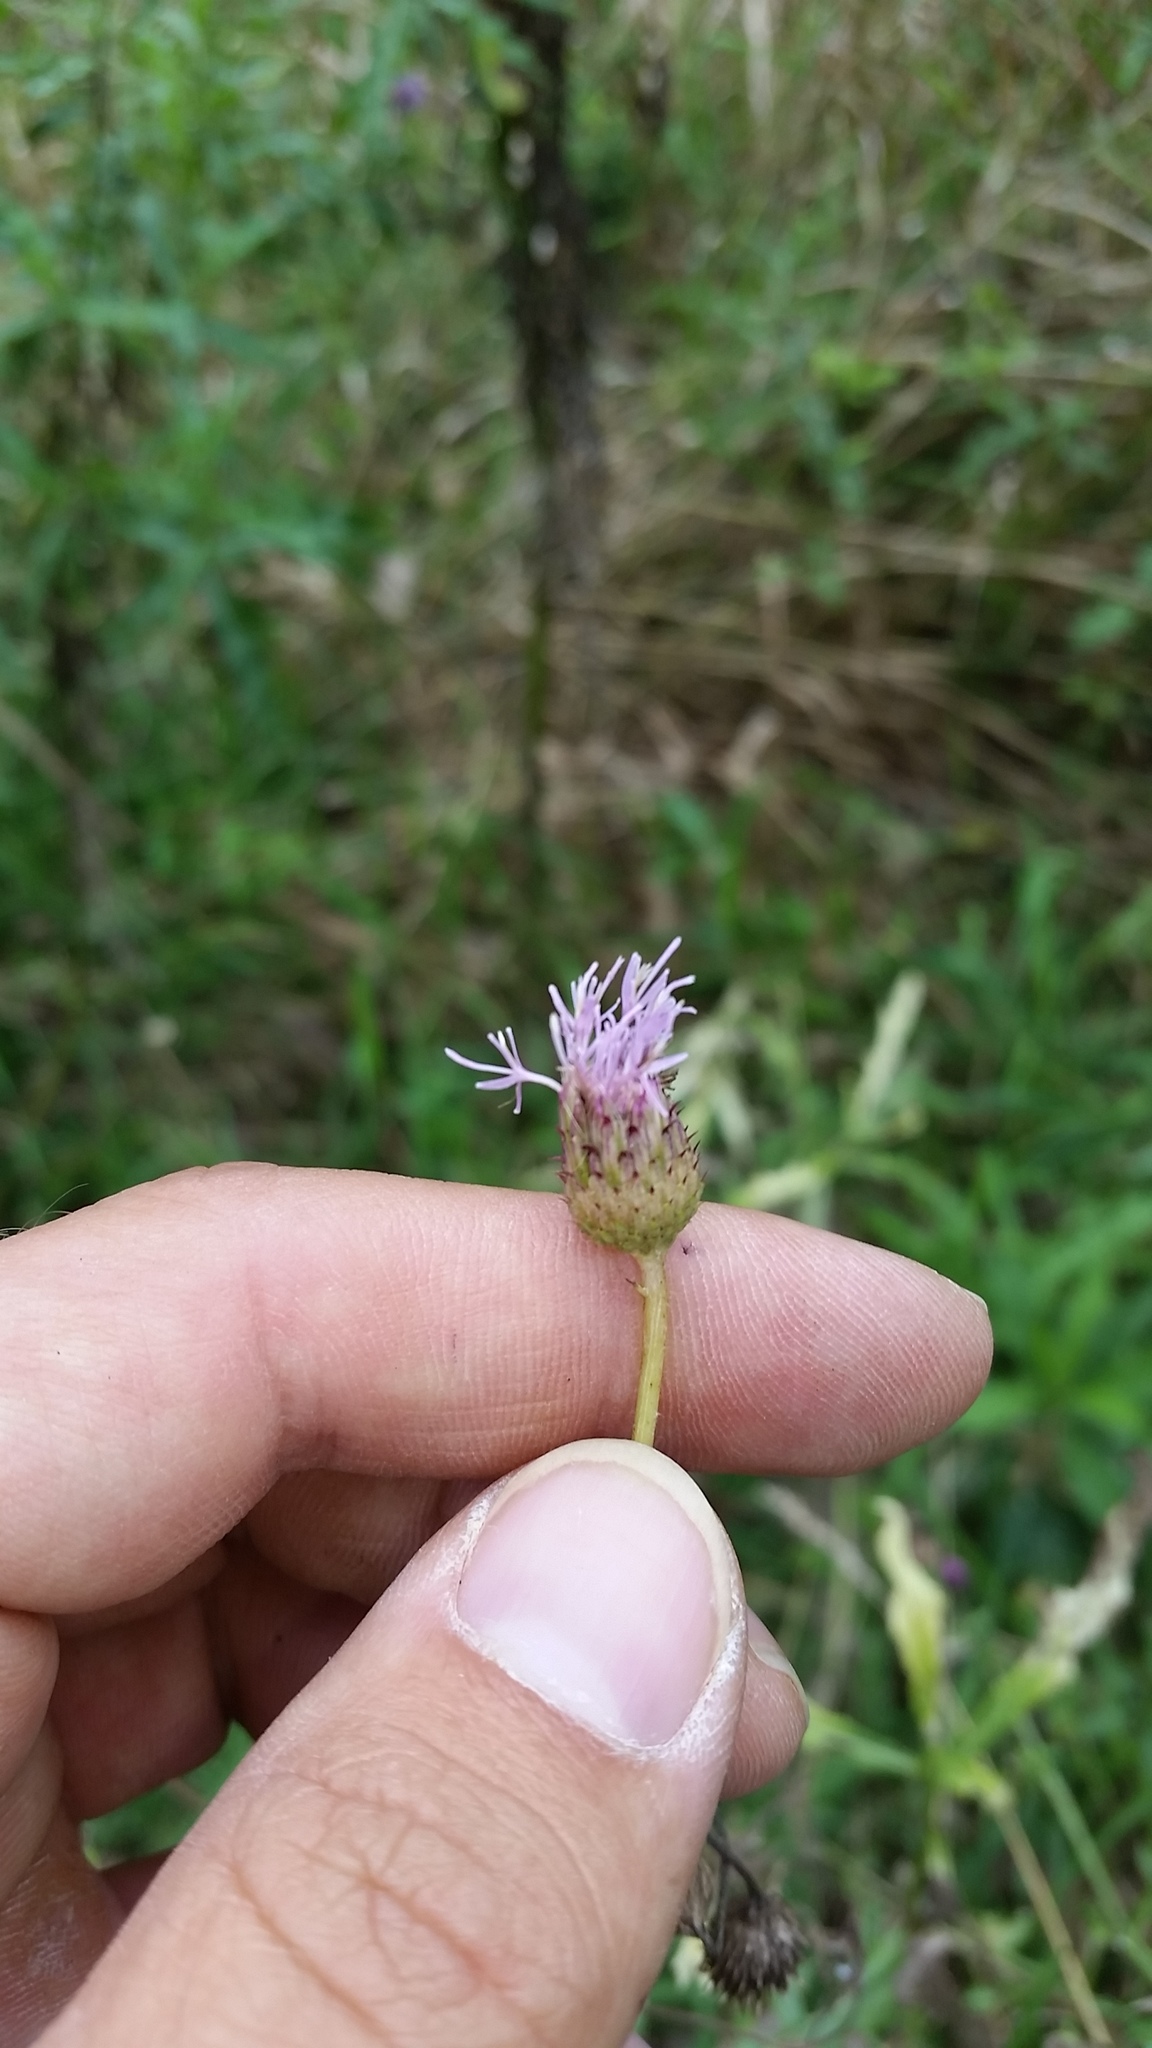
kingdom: Bacteria
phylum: Proteobacteria
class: Gammaproteobacteria
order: Pseudomonadales
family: Pseudomonadaceae
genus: Pseudomonas
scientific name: Pseudomonas syringae
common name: Bacterial speck
